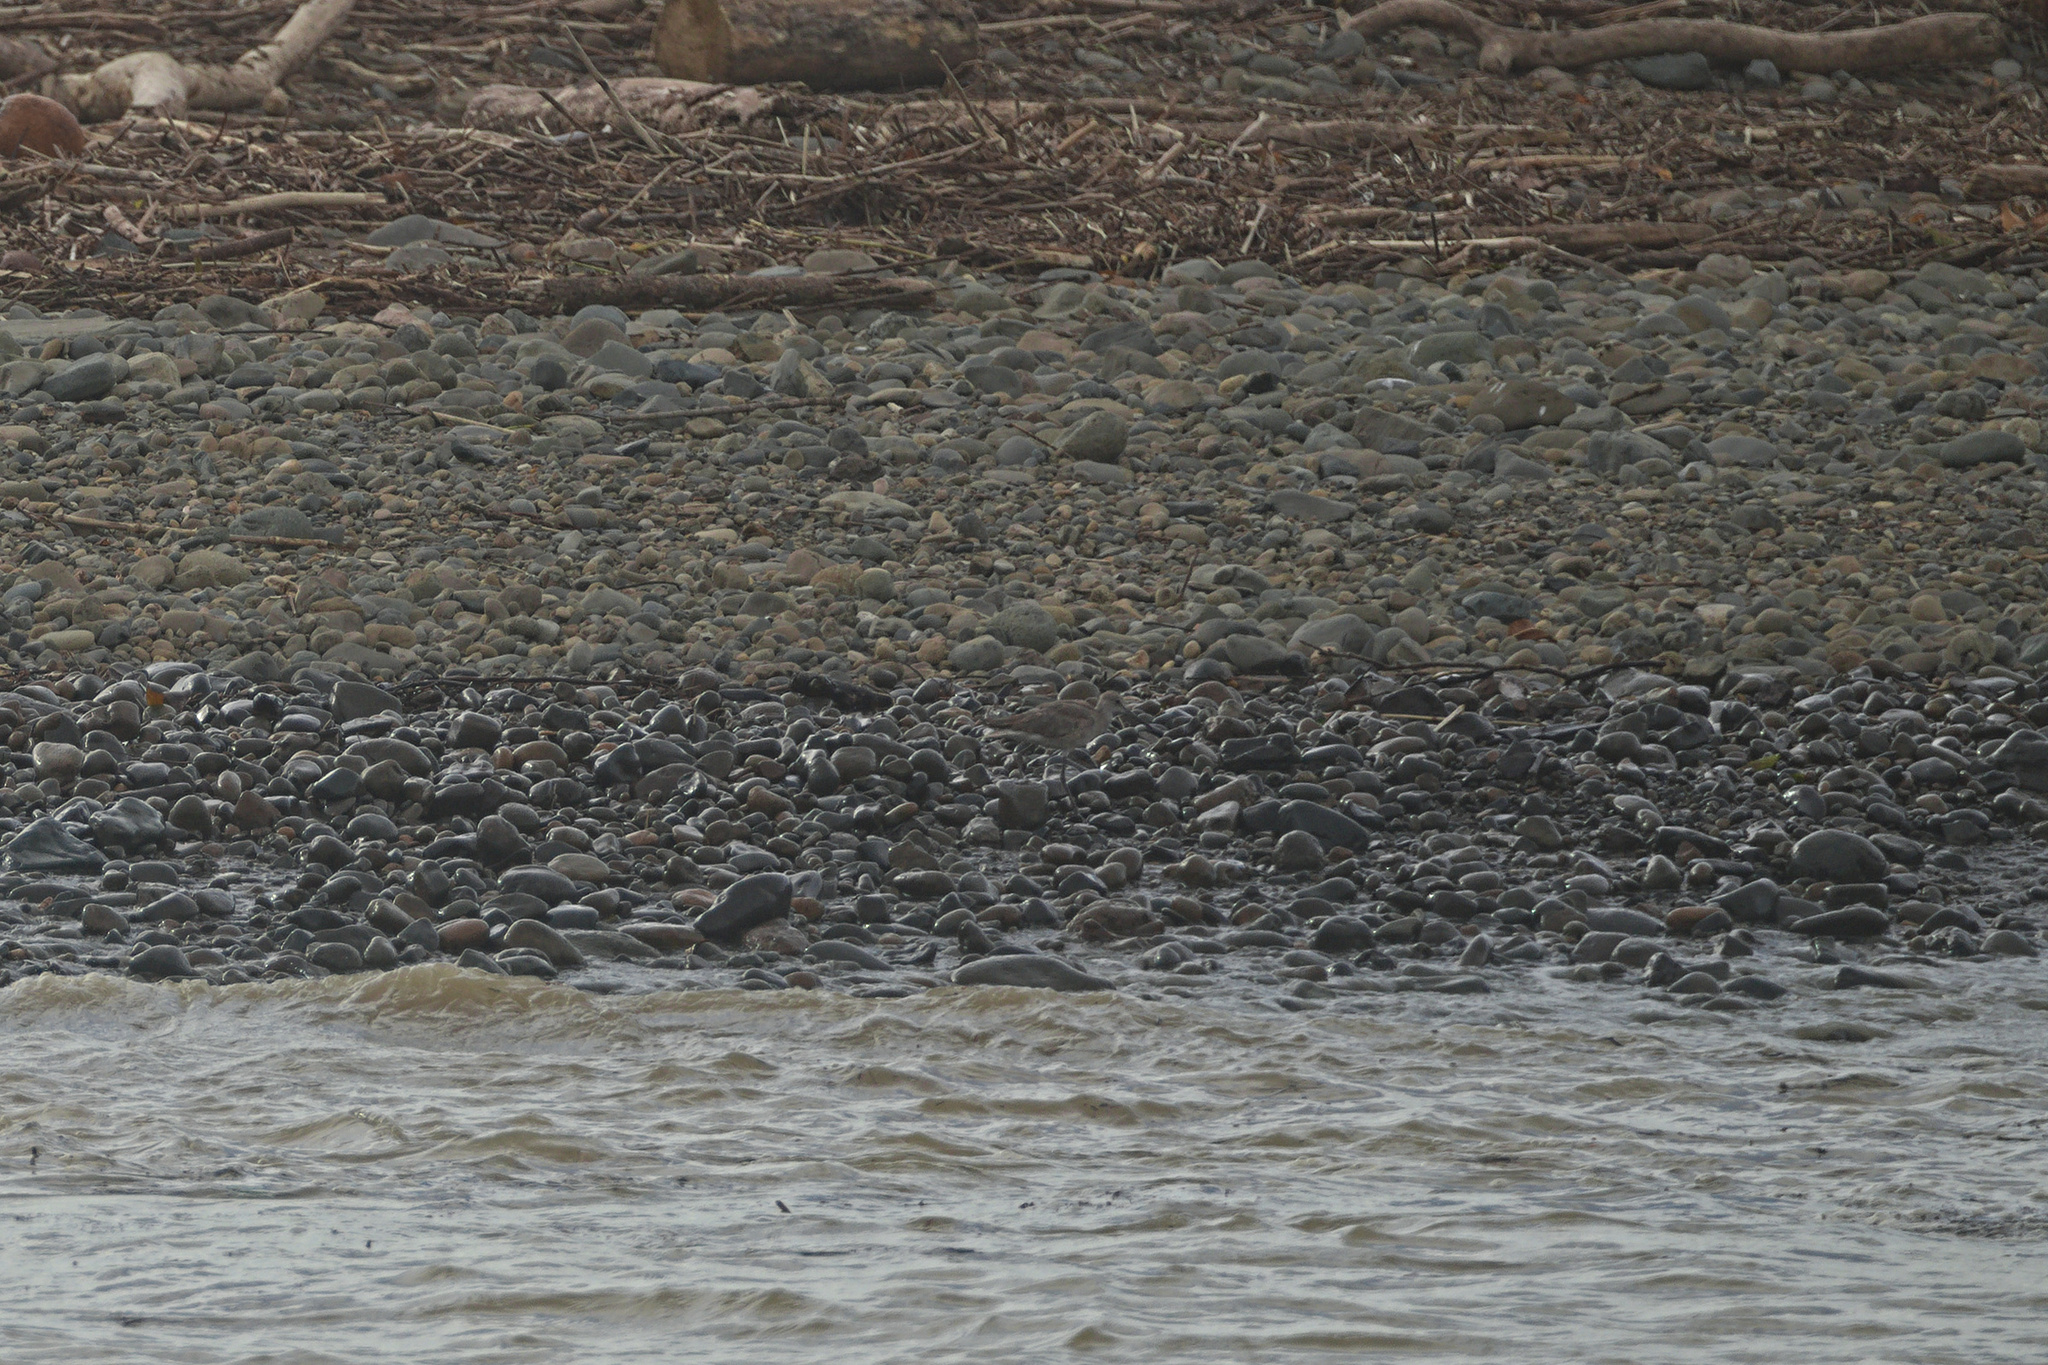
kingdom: Animalia
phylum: Chordata
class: Aves
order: Charadriiformes
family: Scolopacidae
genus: Tringa
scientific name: Tringa semipalmata
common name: Willet
